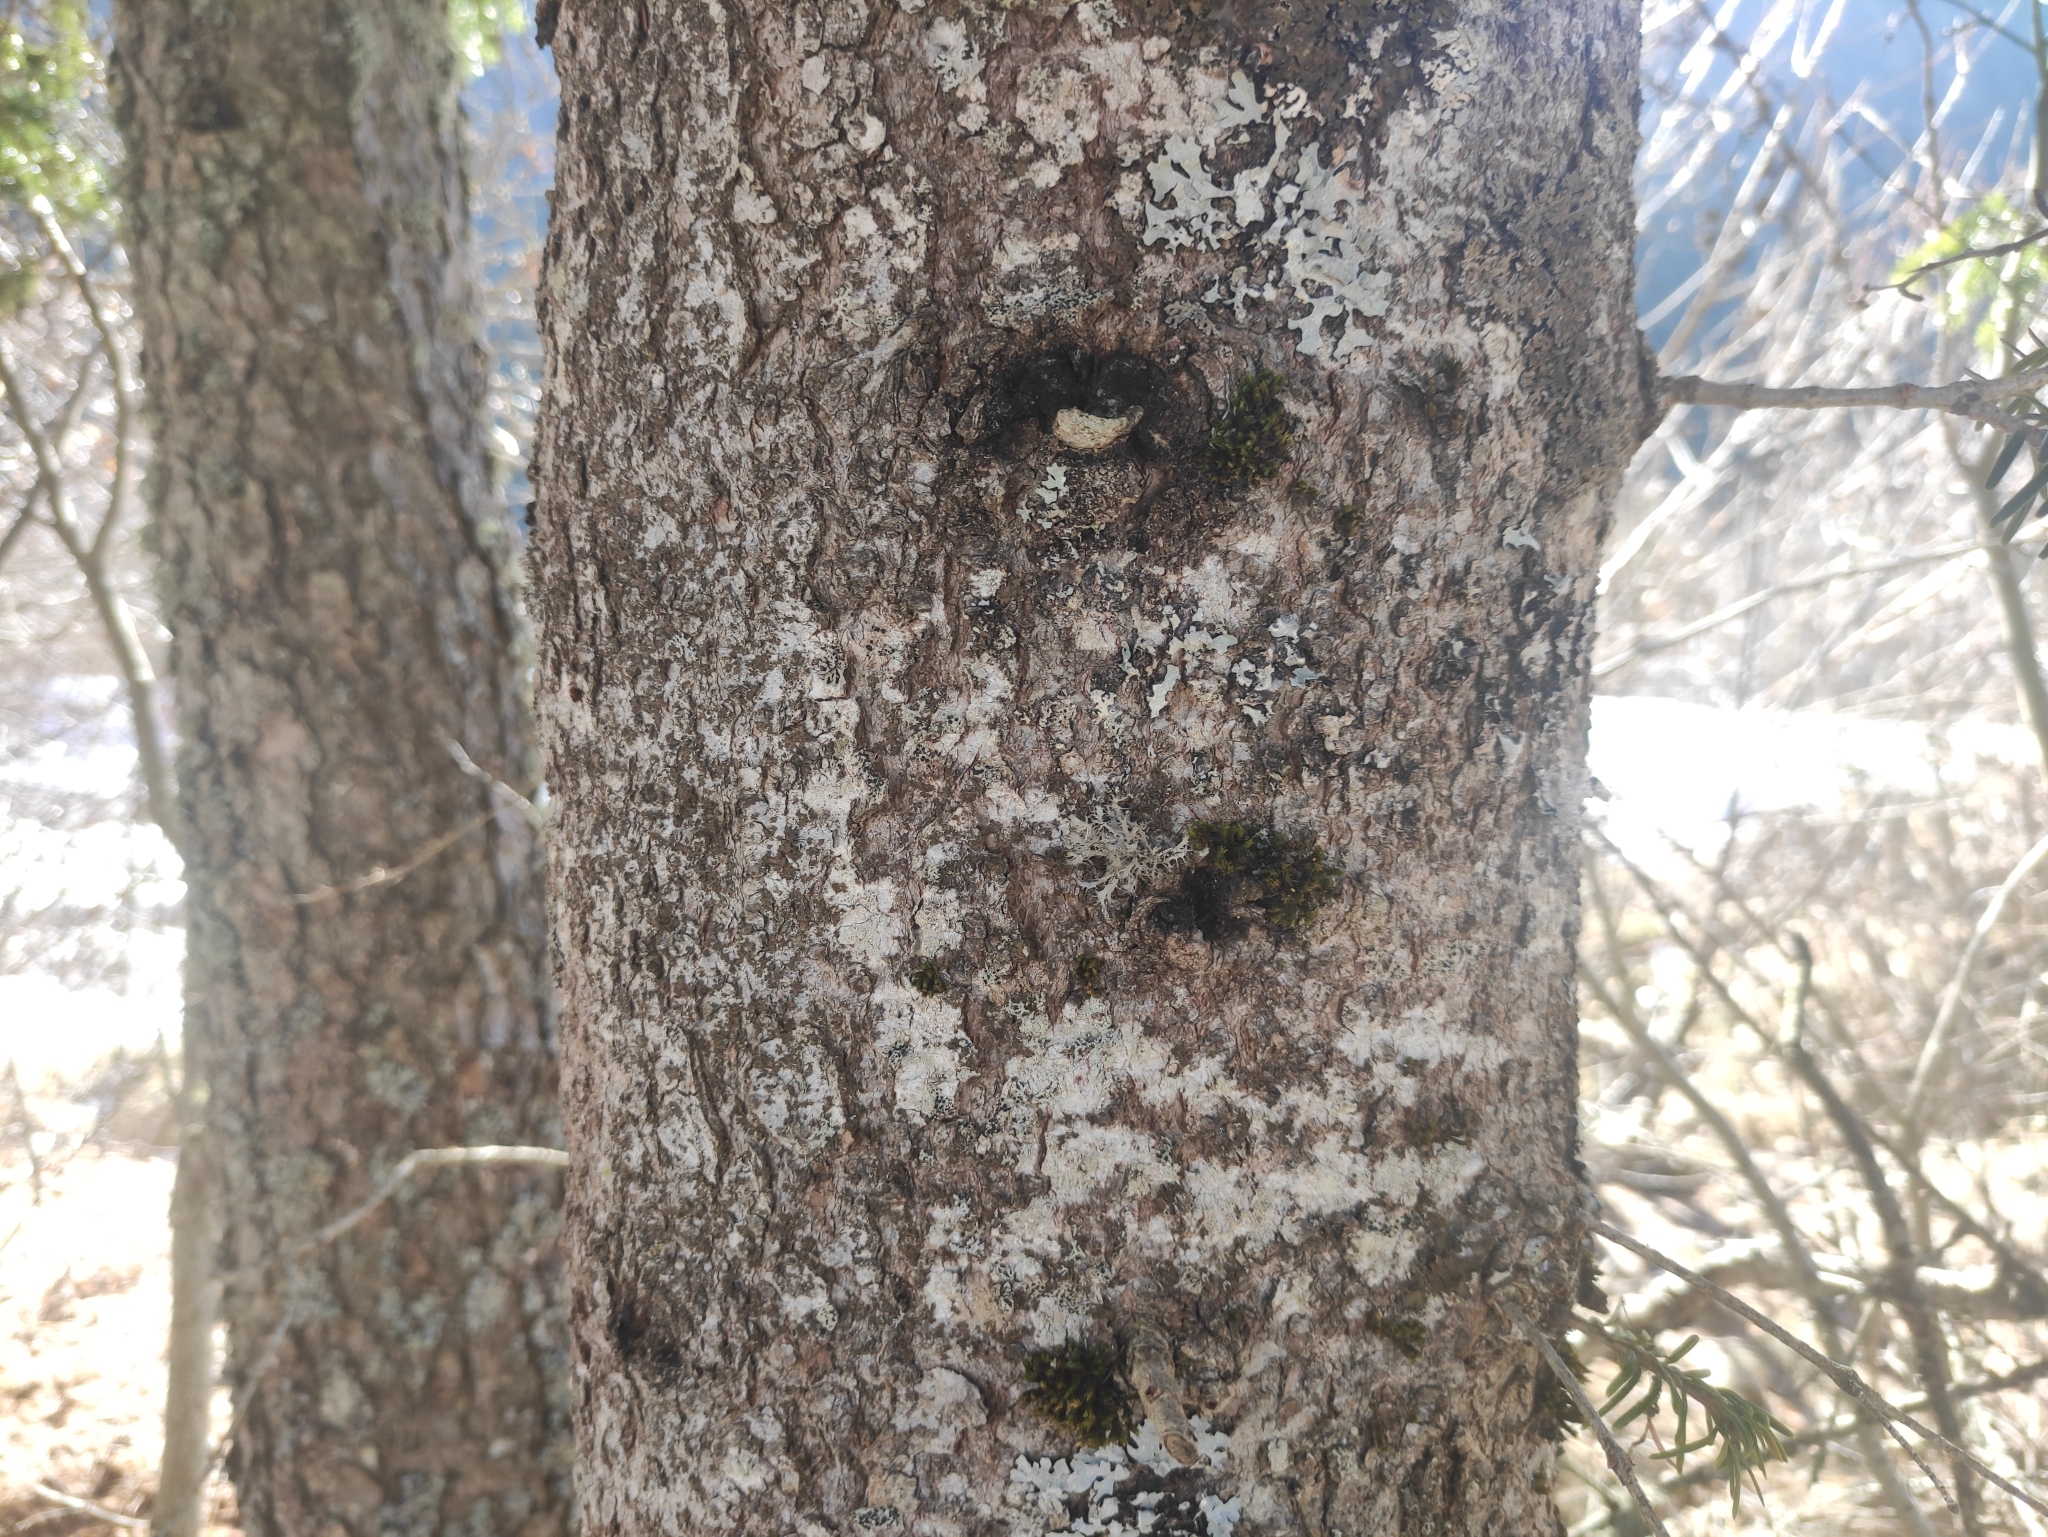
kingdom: Plantae
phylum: Tracheophyta
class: Pinopsida
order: Pinales
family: Pinaceae
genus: Abies
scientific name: Abies alba
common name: Silver fir
